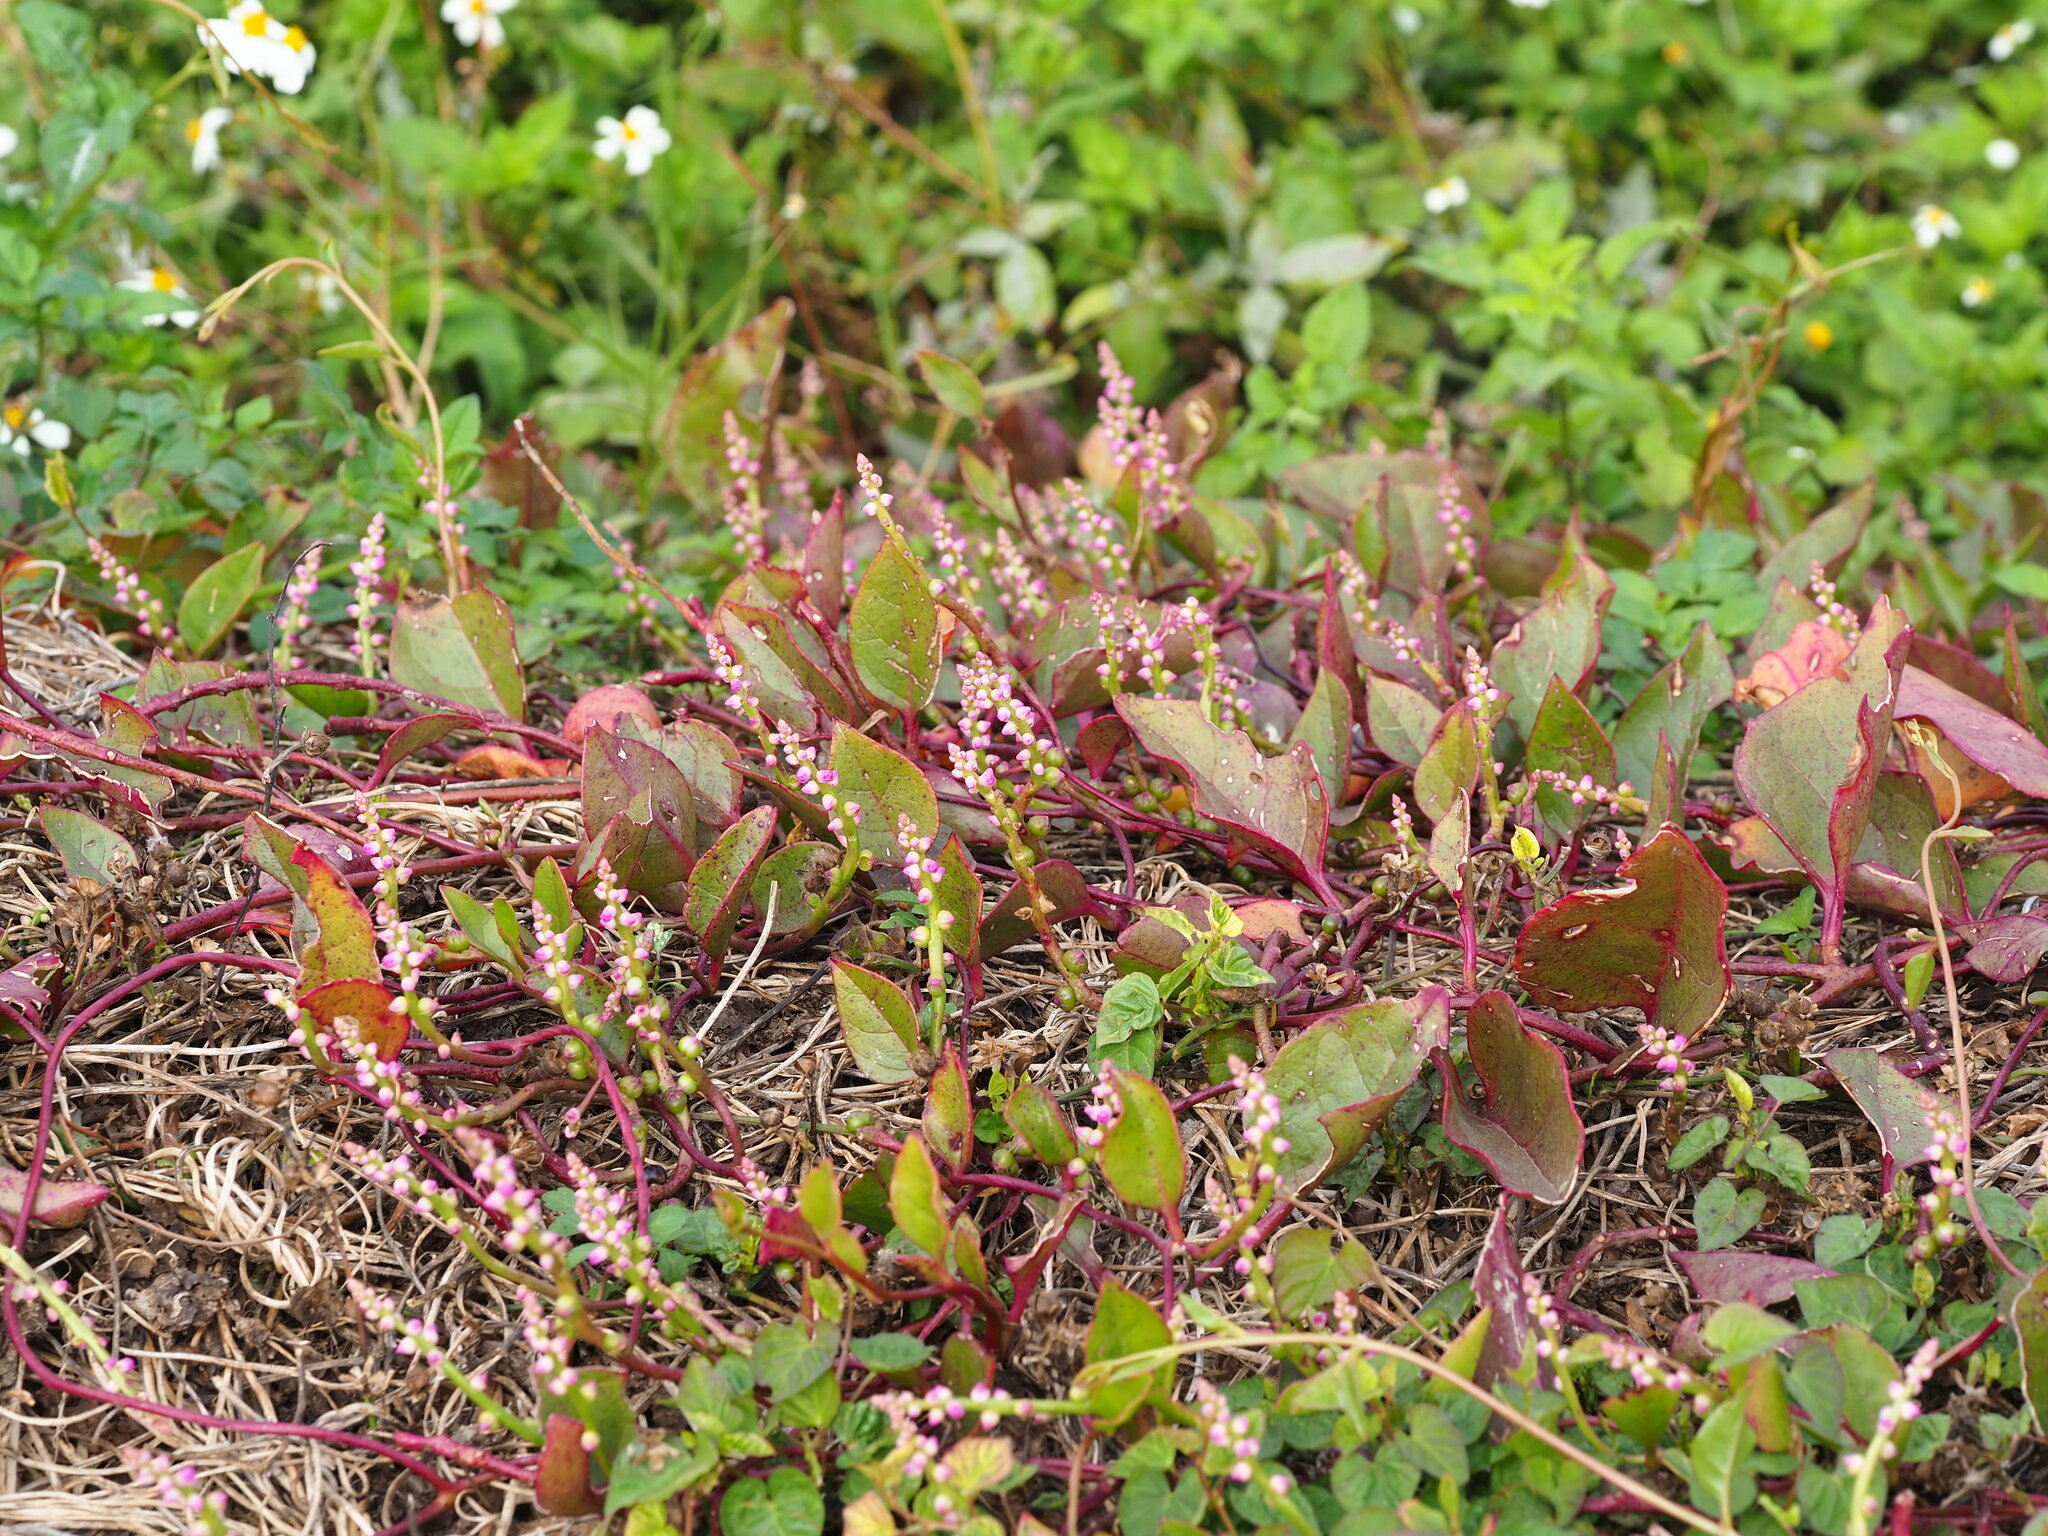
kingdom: Plantae
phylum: Tracheophyta
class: Magnoliopsida
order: Caryophyllales
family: Basellaceae
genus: Basella
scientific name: Basella alba
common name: Indian spinach
